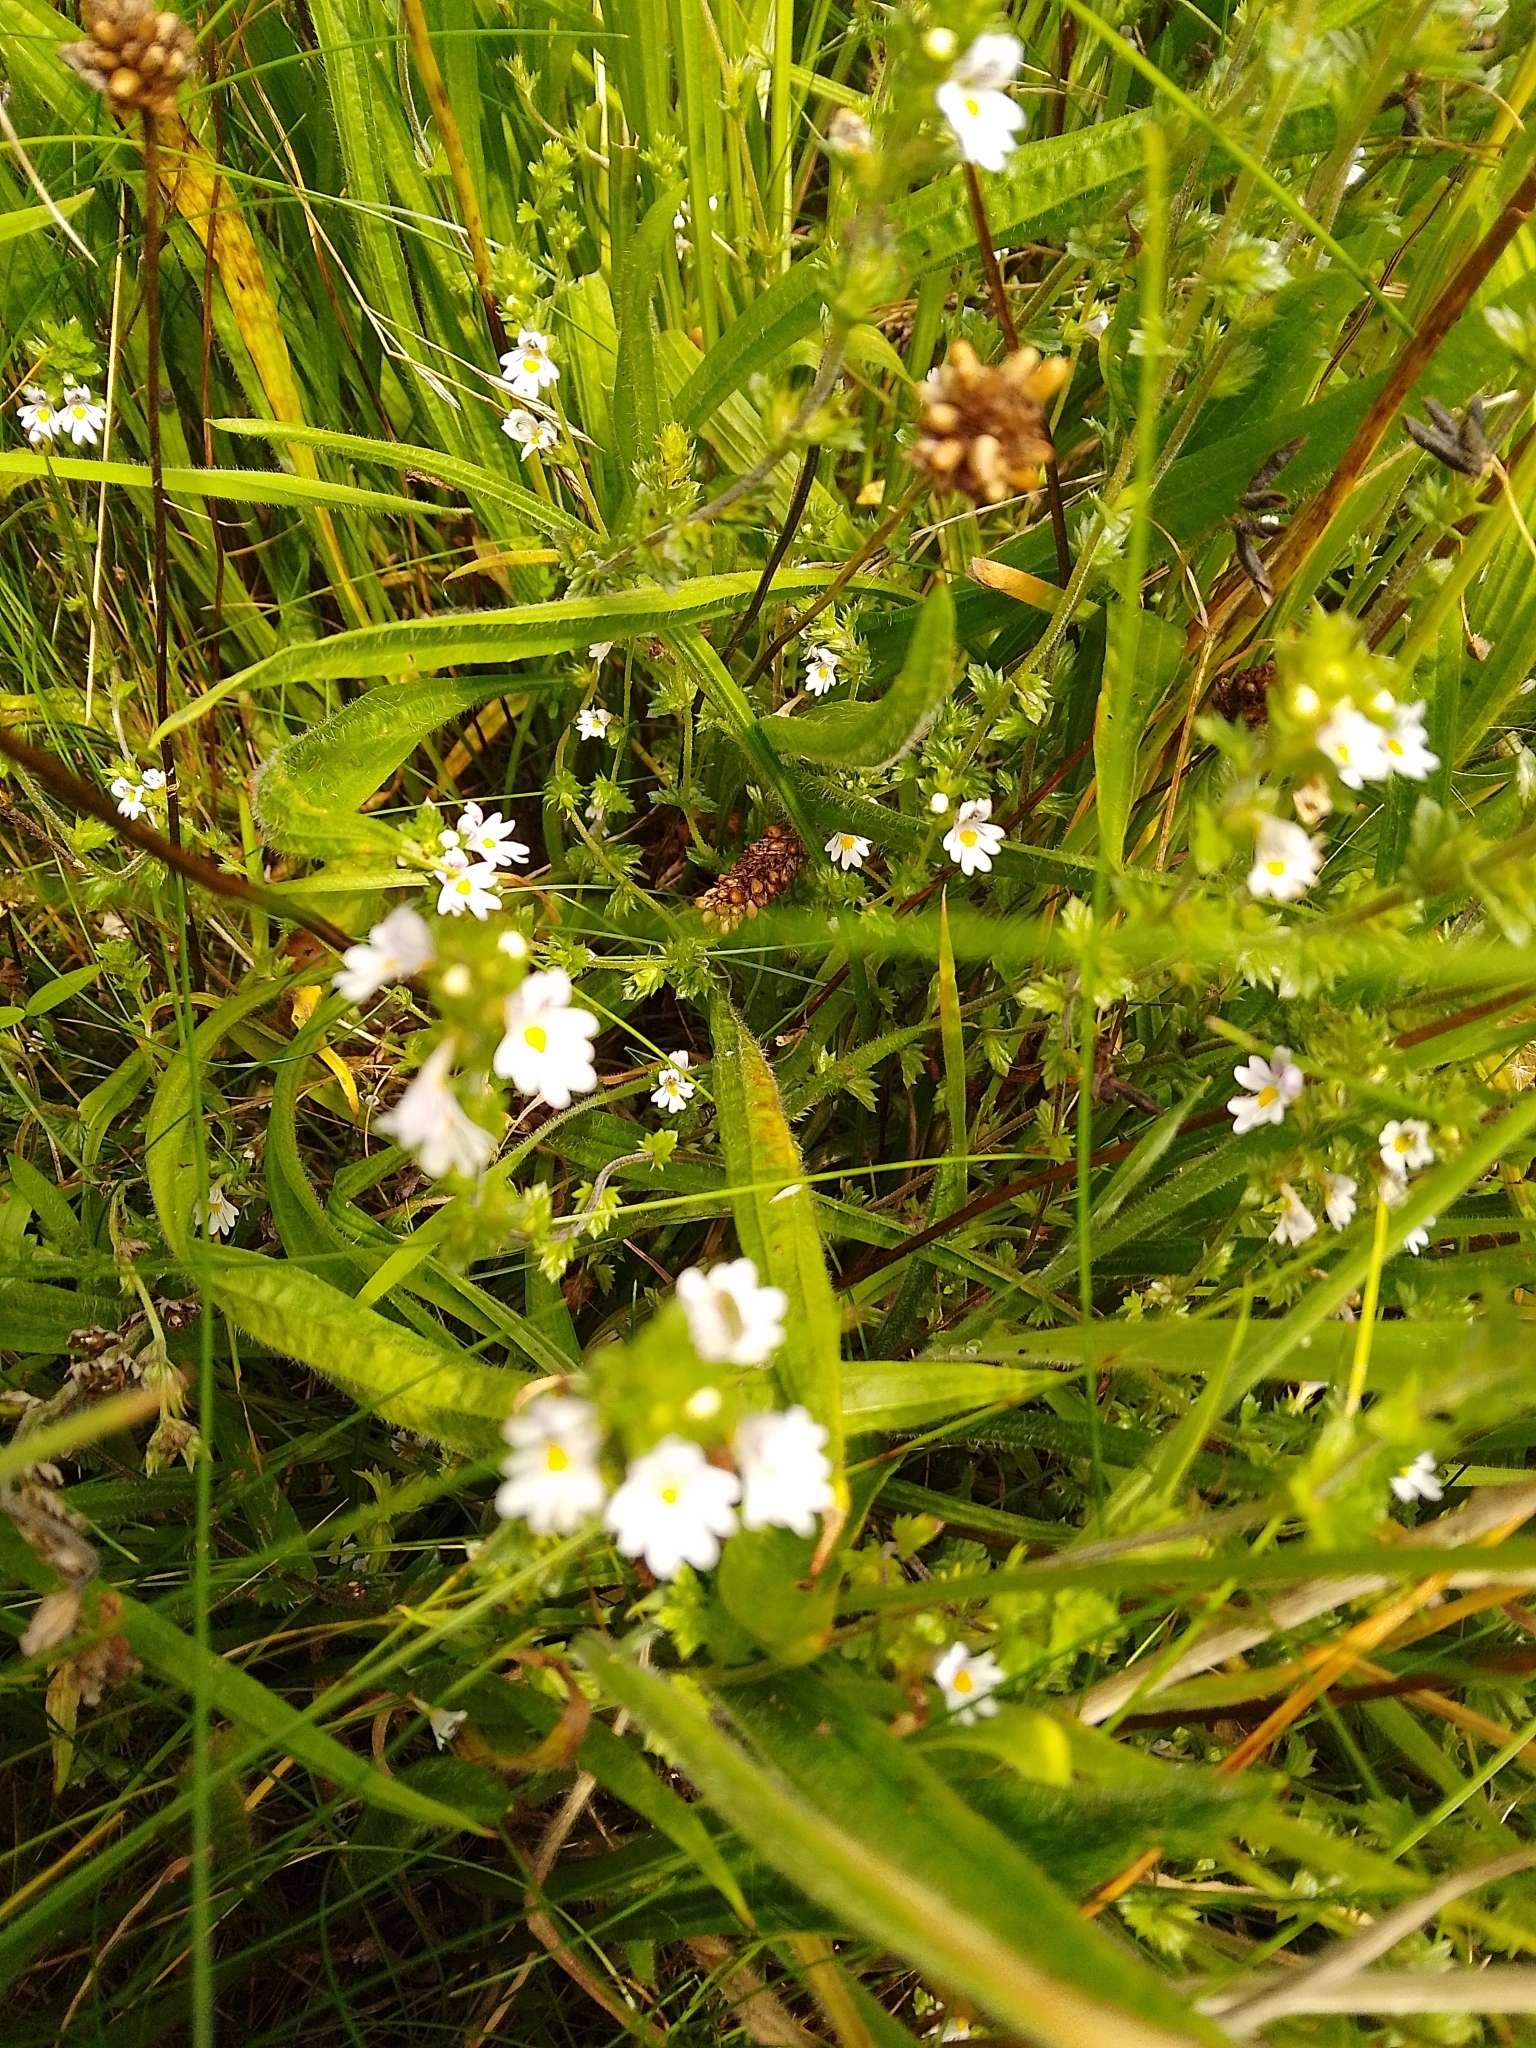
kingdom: Plantae
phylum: Tracheophyta
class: Magnoliopsida
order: Lamiales
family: Orobanchaceae
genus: Euphrasia
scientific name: Euphrasia nemorosa
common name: Common eyebright
